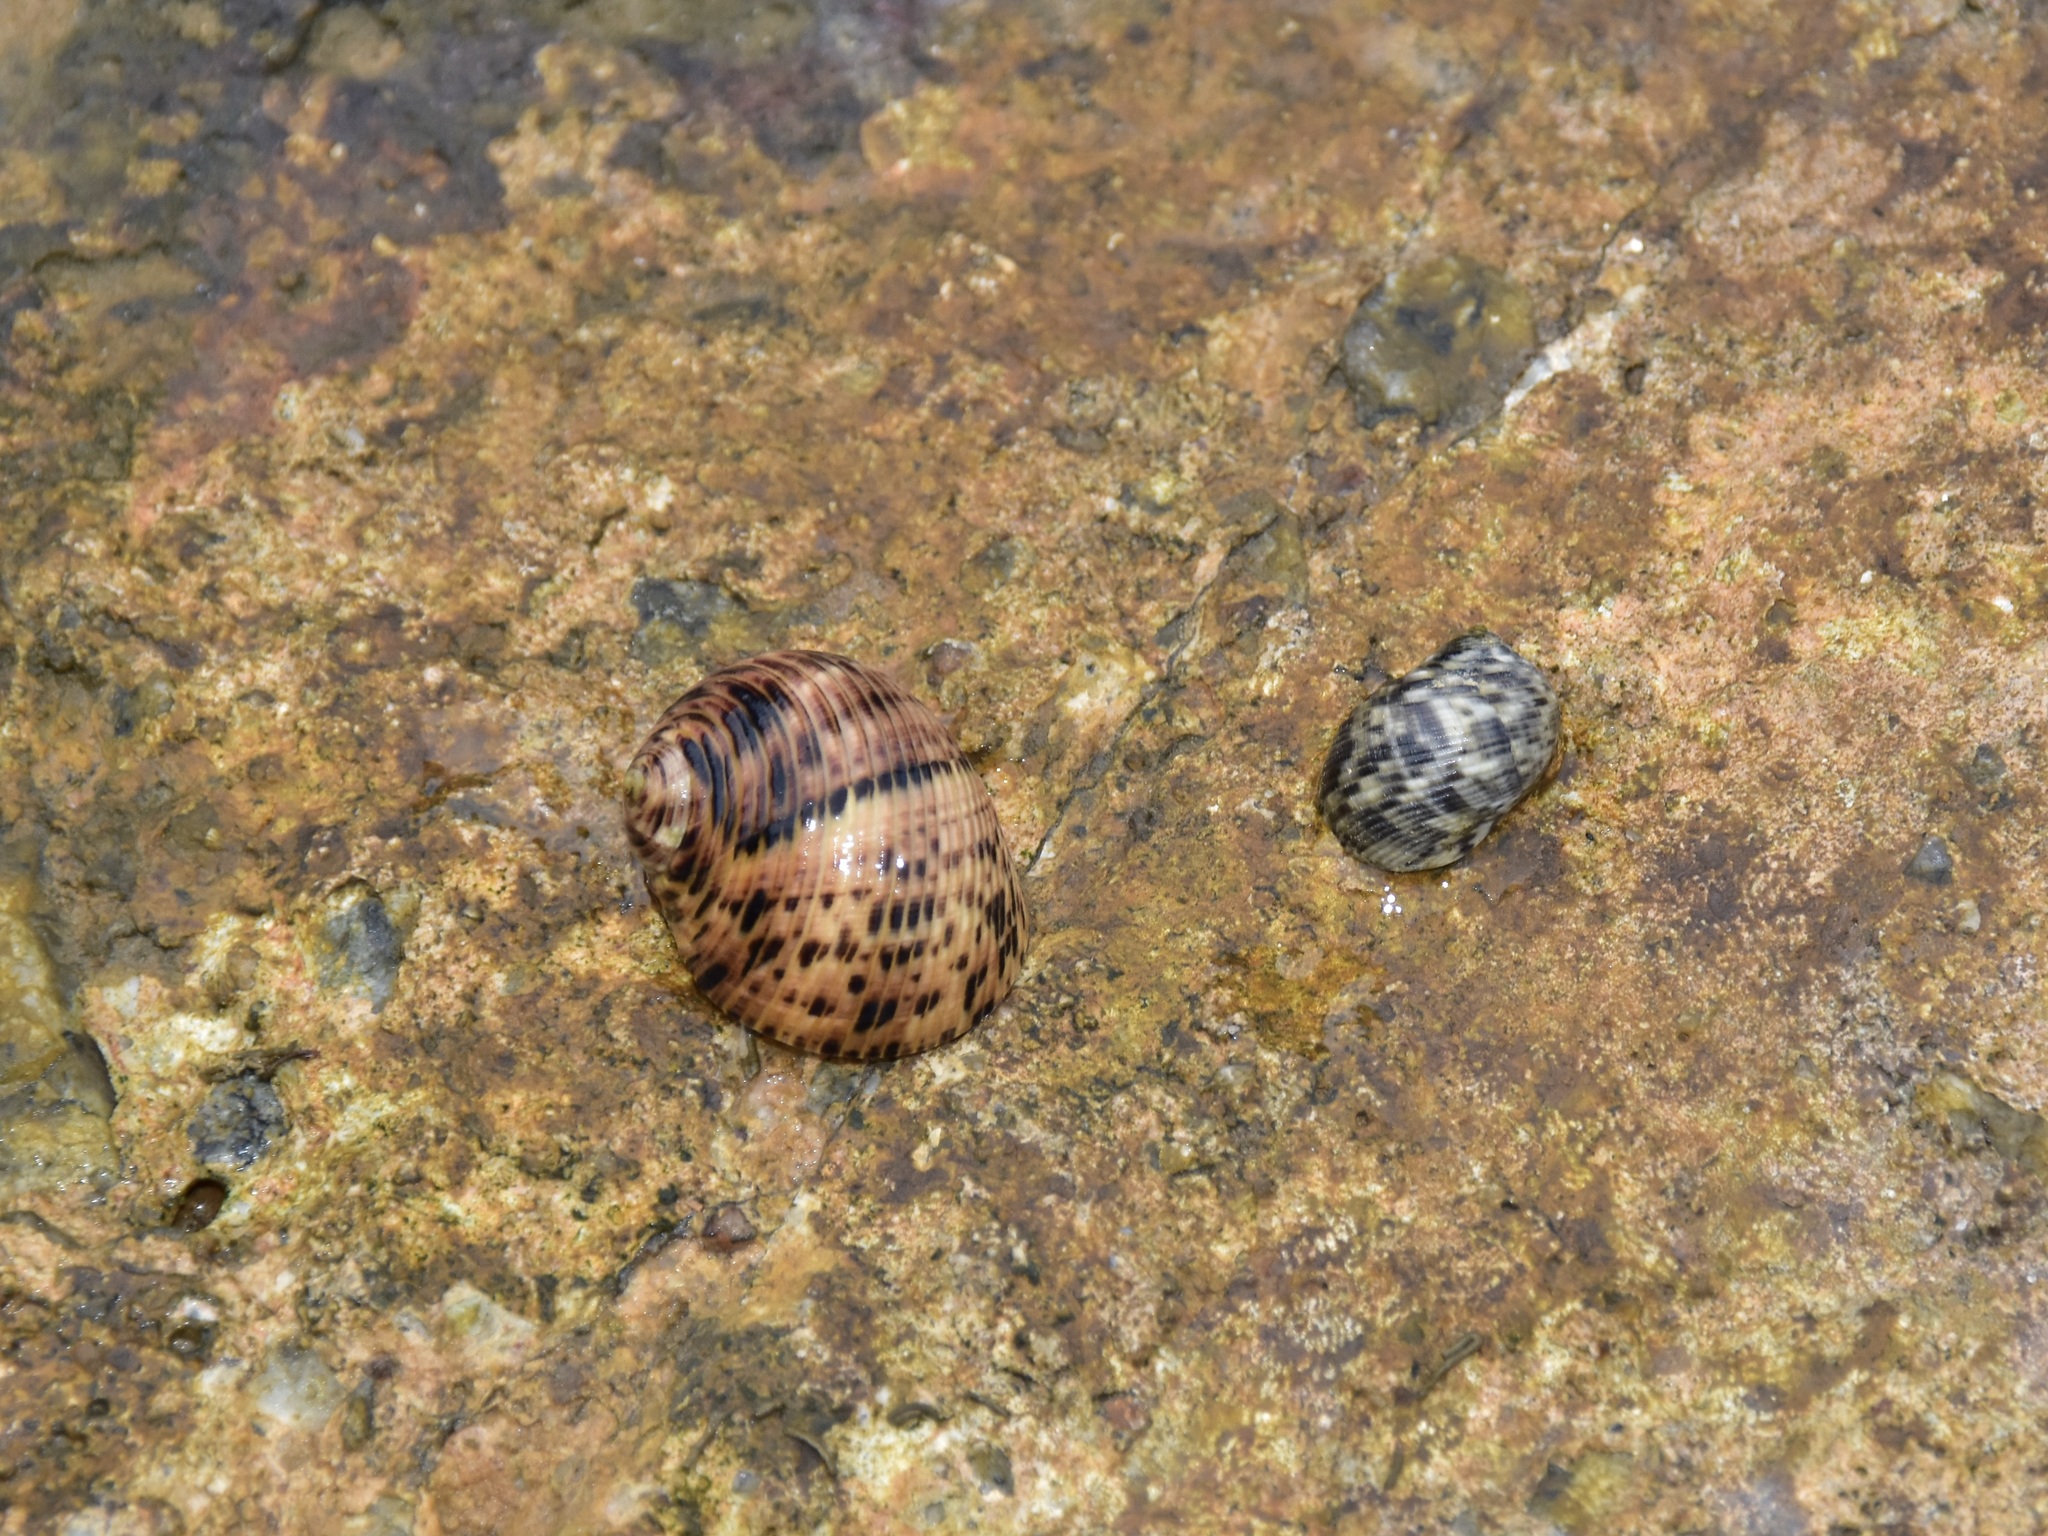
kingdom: Animalia
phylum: Mollusca
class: Gastropoda
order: Cycloneritida
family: Neritidae
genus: Nerita
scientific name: Nerita undata
